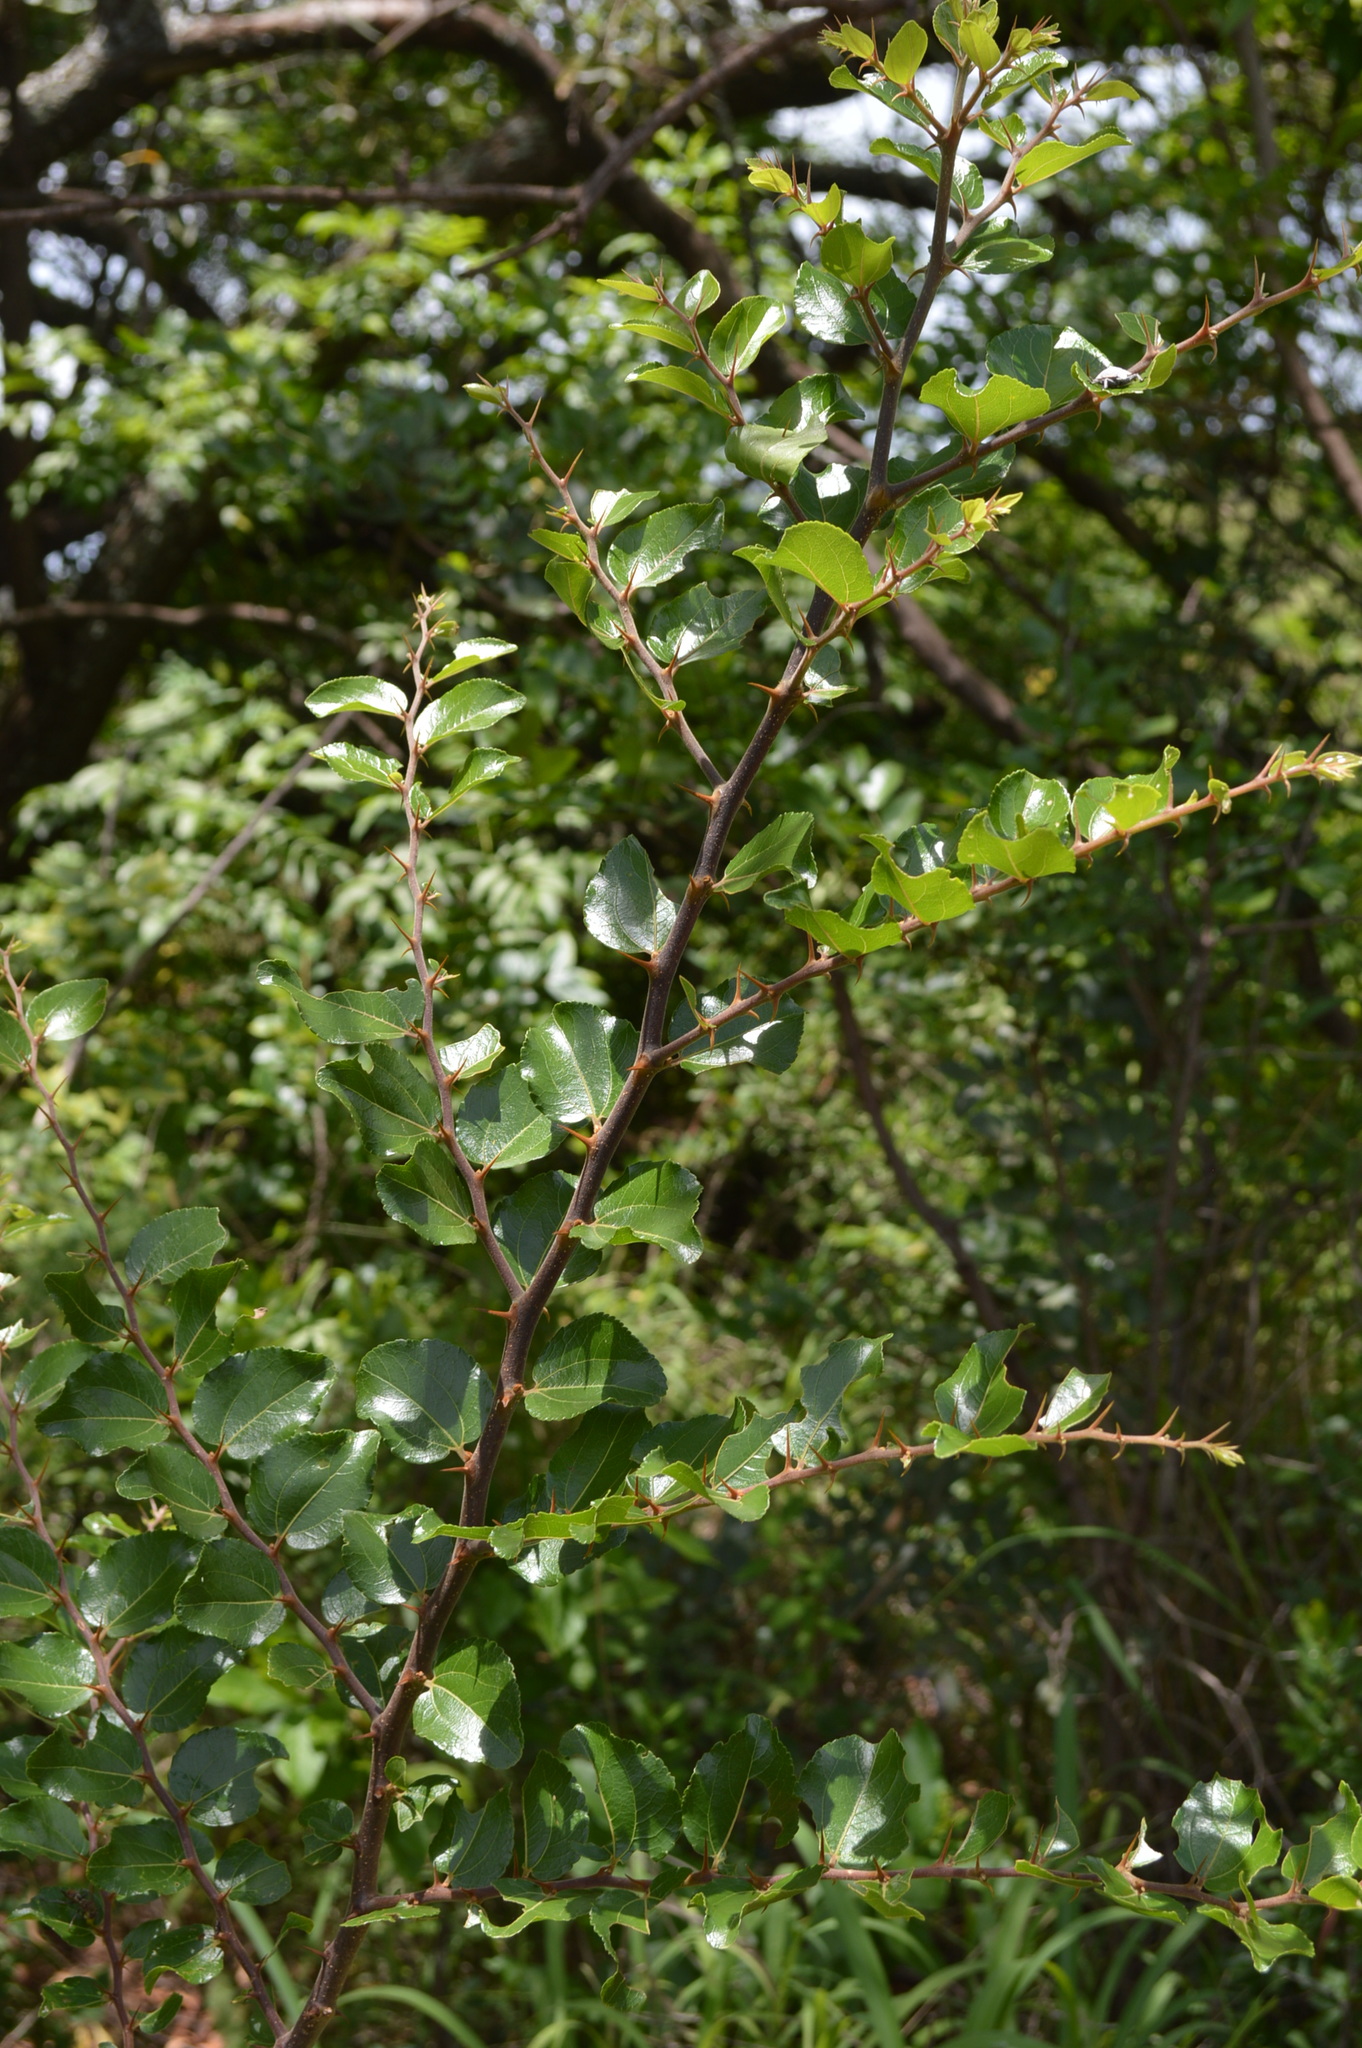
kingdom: Plantae
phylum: Tracheophyta
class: Magnoliopsida
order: Rosales
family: Rhamnaceae
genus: Ziziphus
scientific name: Ziziphus mucronata
